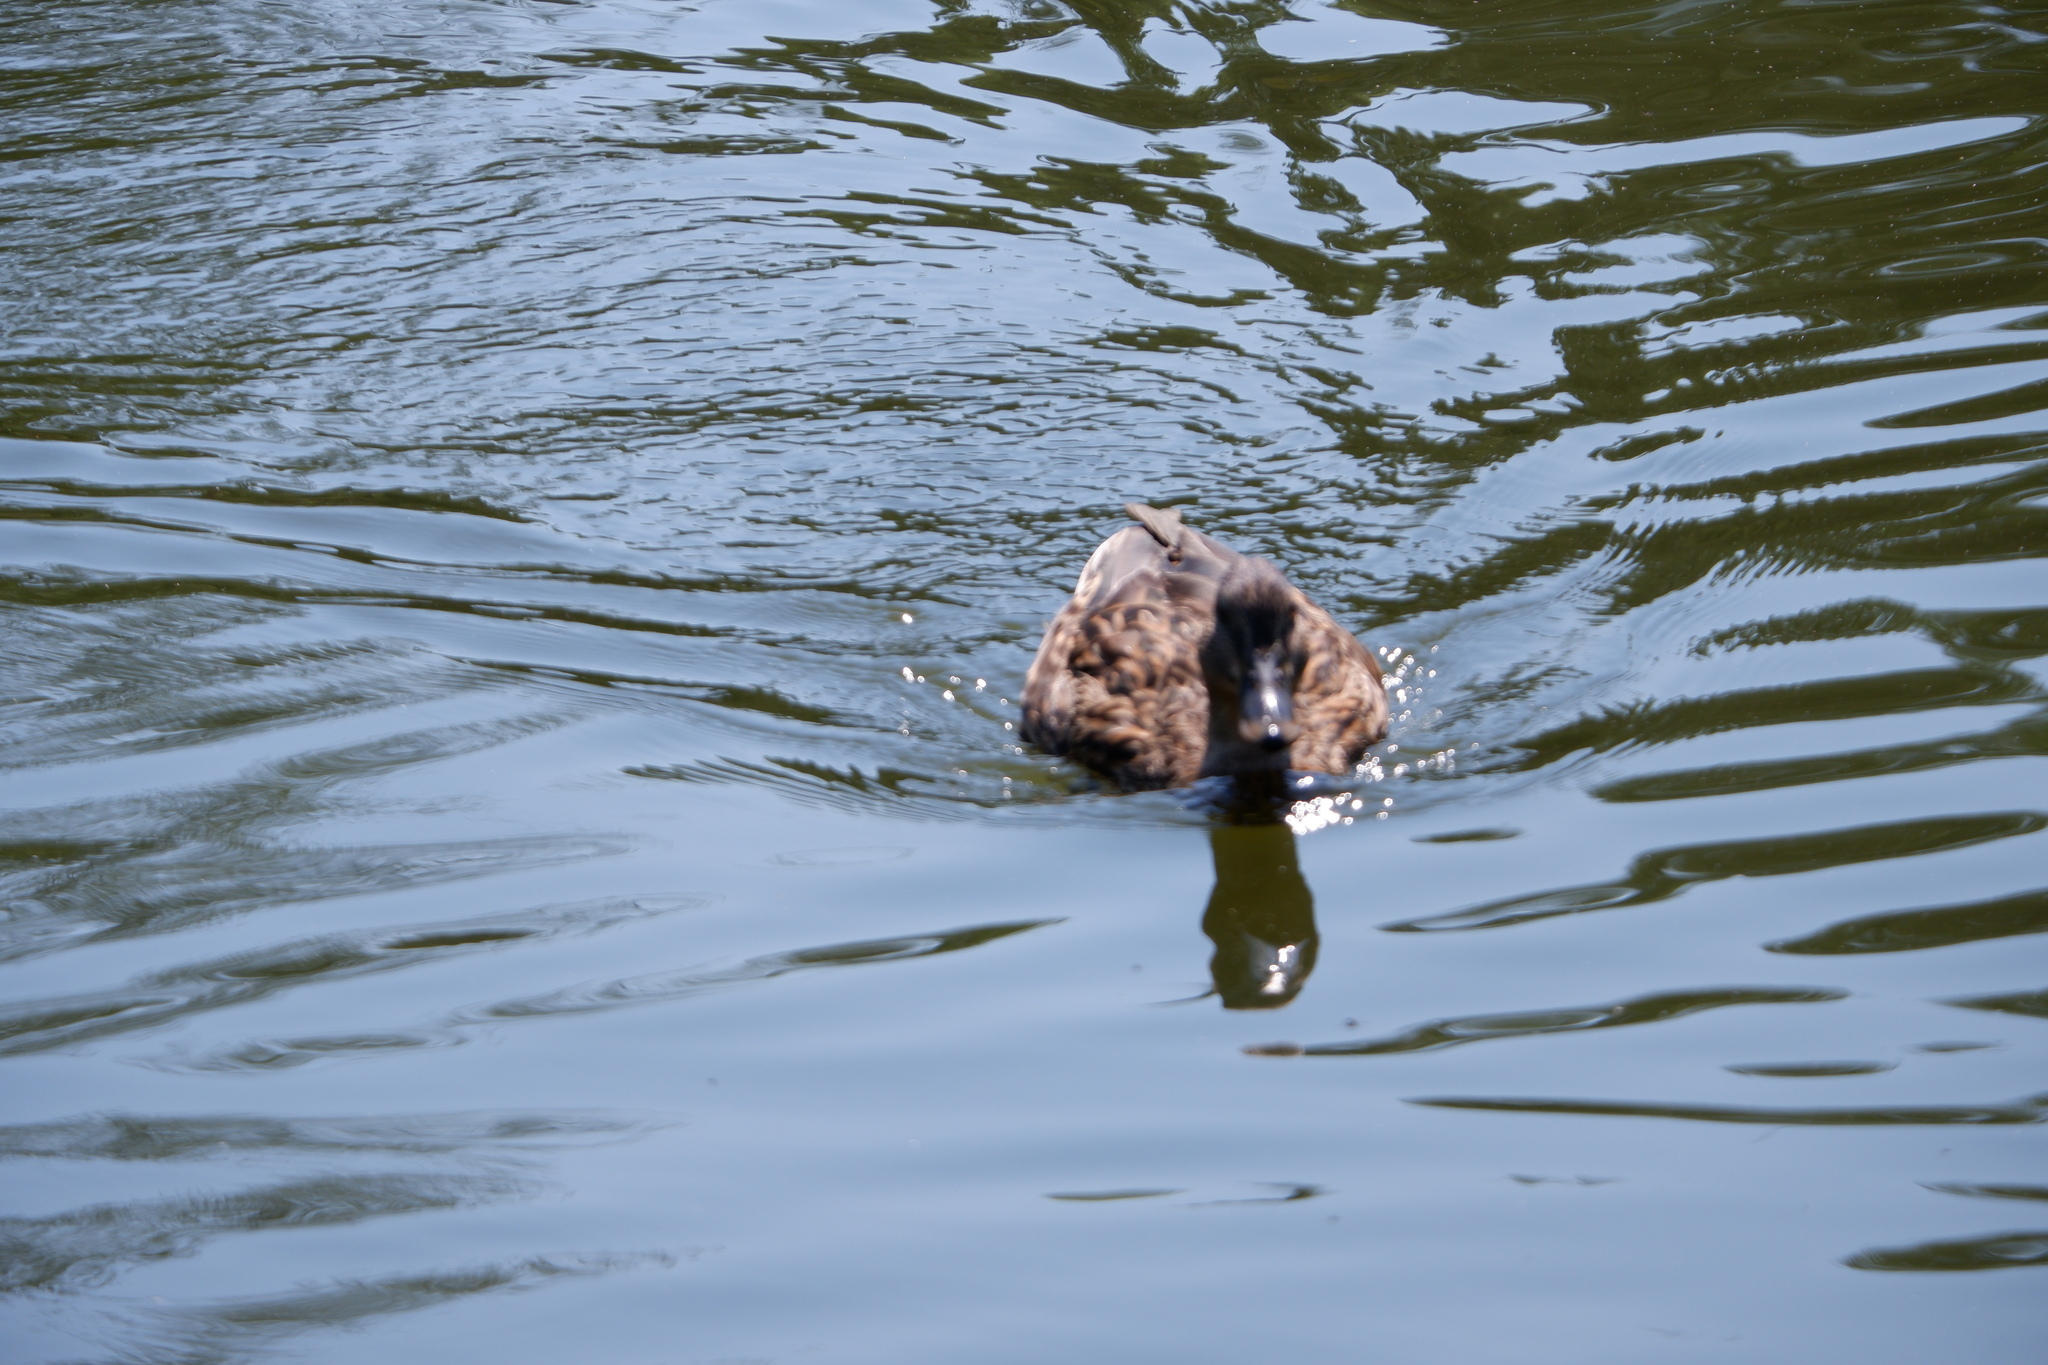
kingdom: Animalia
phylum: Chordata
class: Aves
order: Anseriformes
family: Anatidae
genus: Anas
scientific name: Anas platyrhynchos
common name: Mallard
